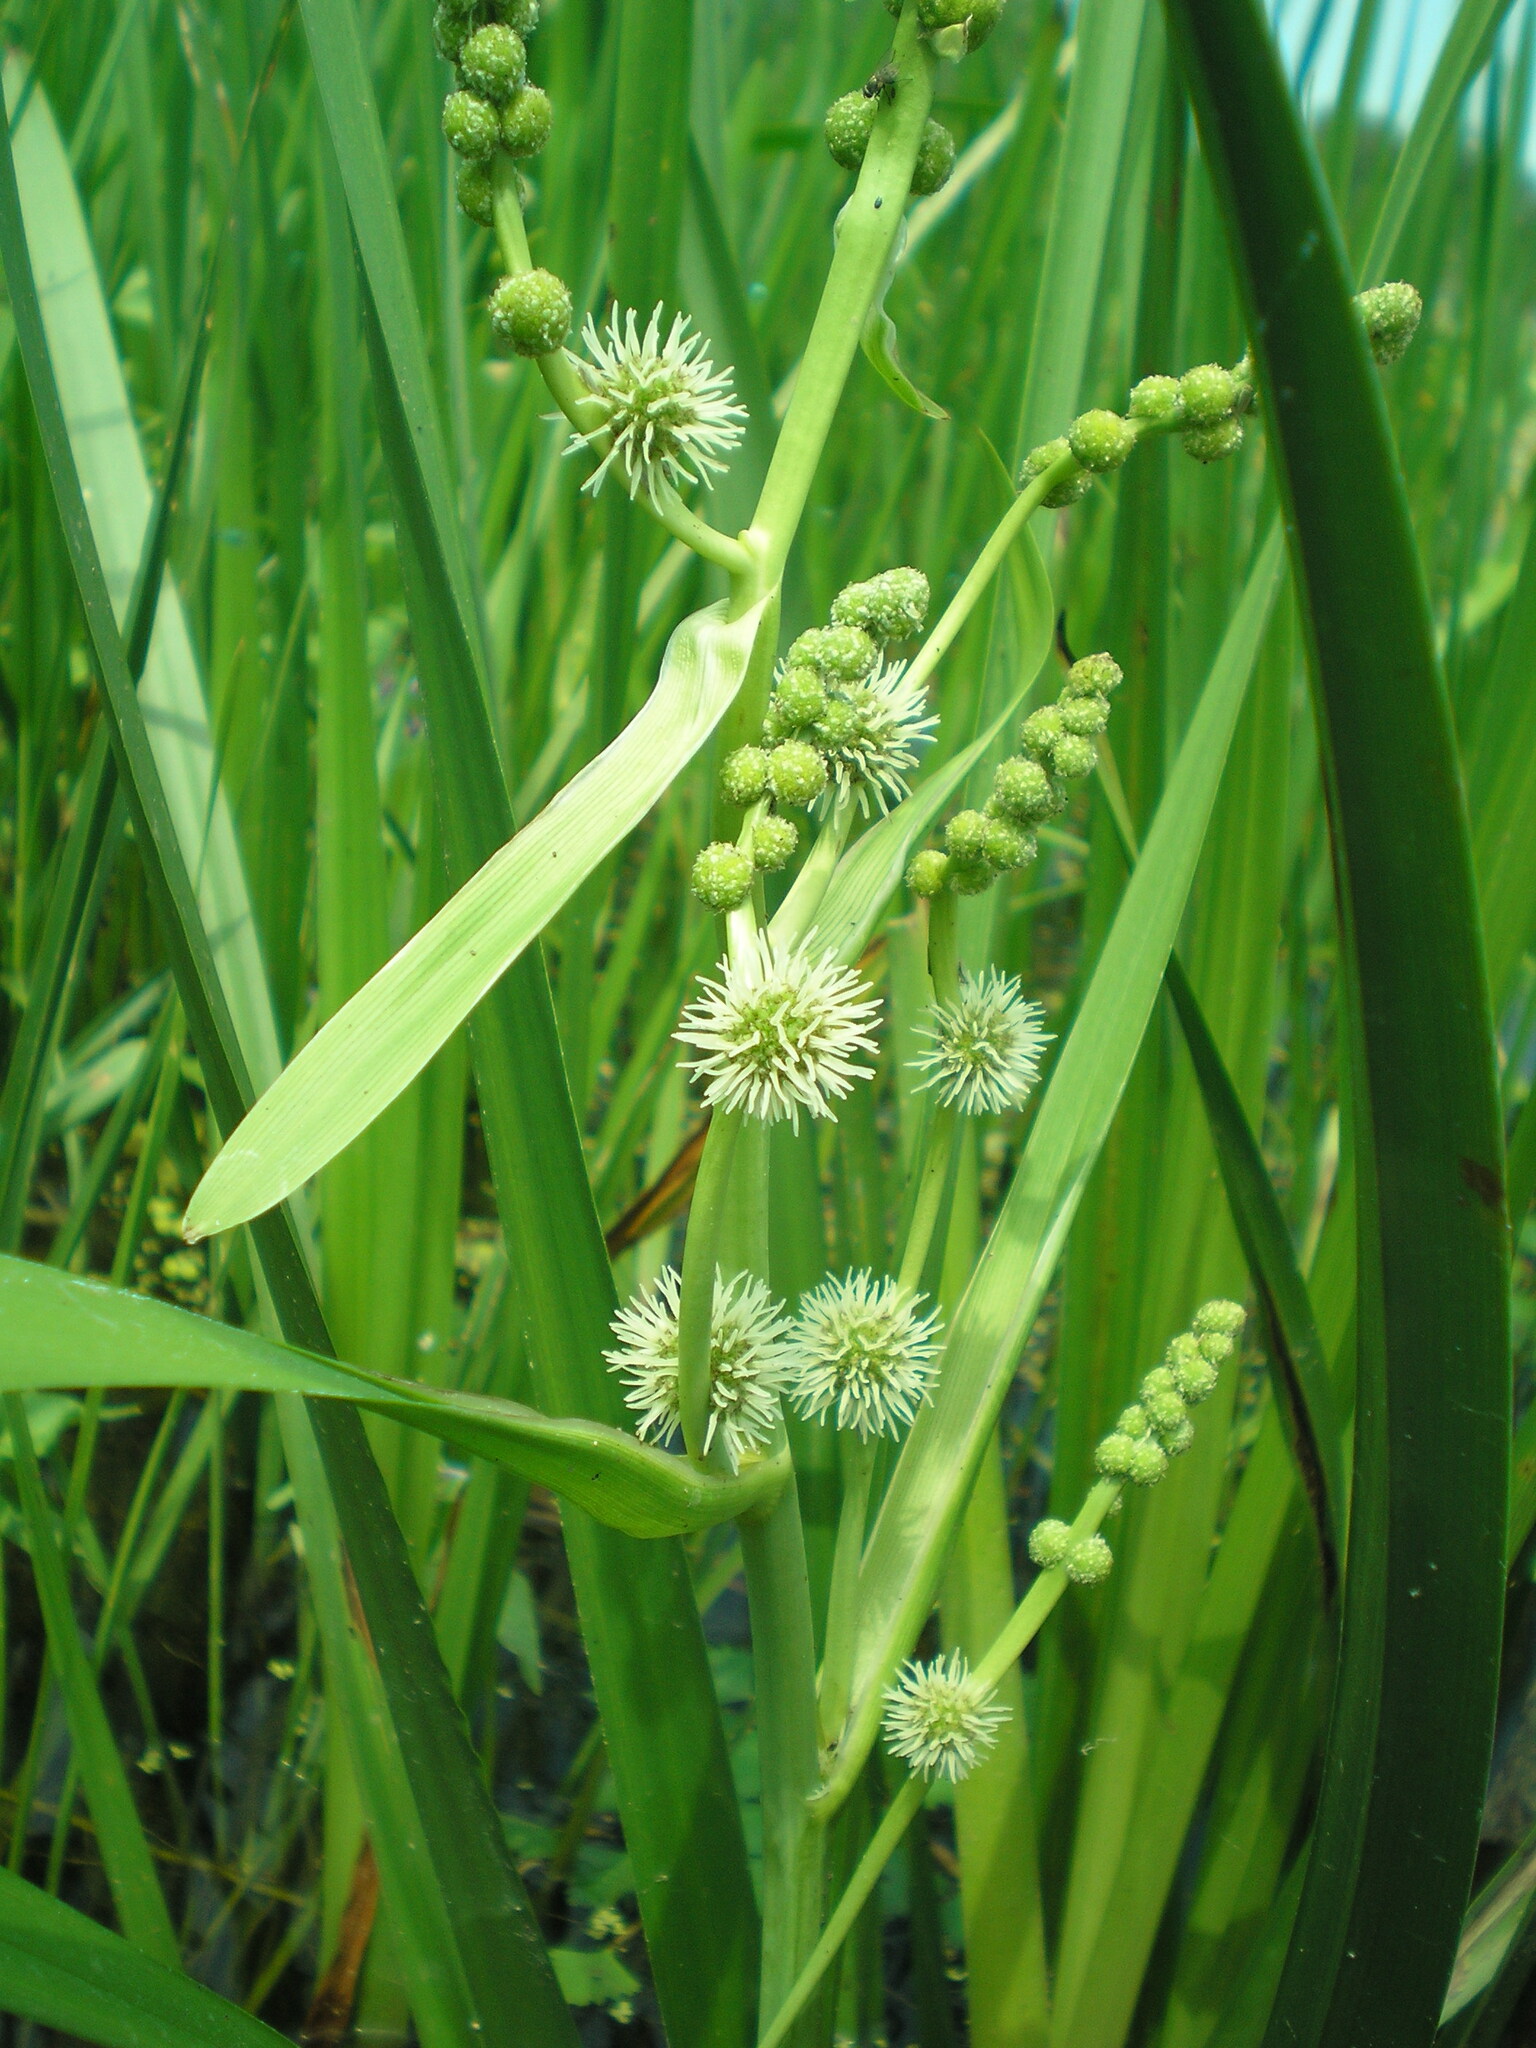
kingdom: Plantae
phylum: Tracheophyta
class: Liliopsida
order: Poales
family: Typhaceae
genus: Sparganium
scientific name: Sparganium erectum
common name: Branched bur-reed
